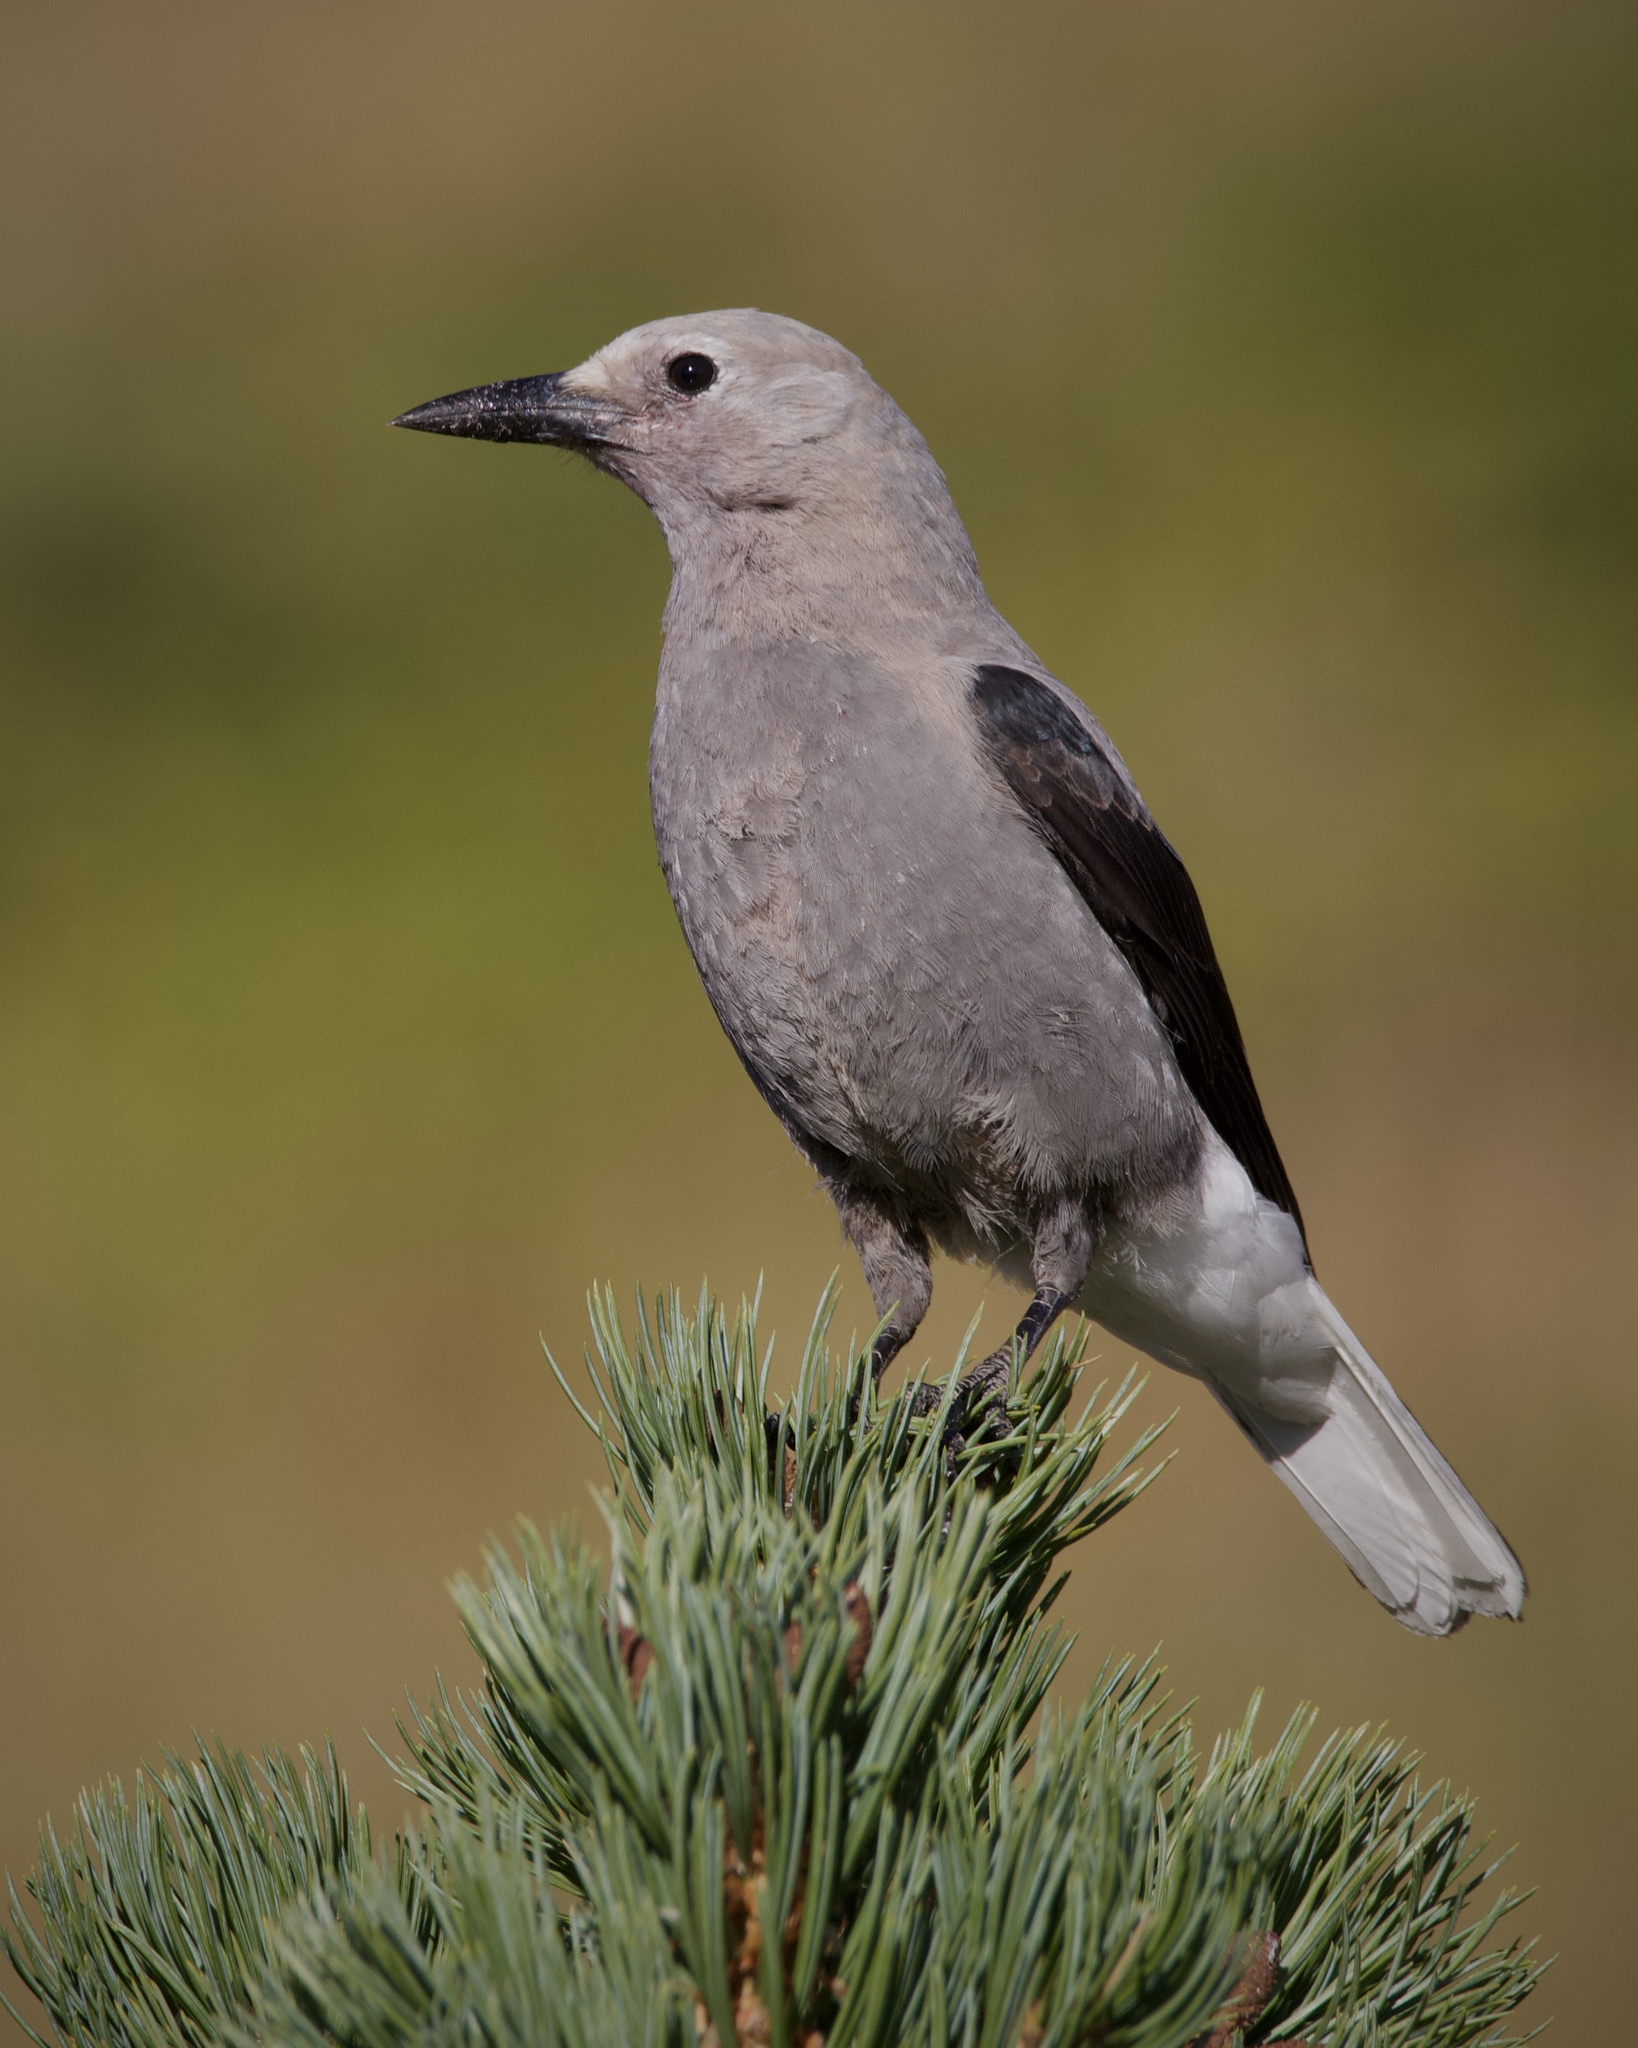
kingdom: Animalia
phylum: Chordata
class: Aves
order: Passeriformes
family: Corvidae
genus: Nucifraga
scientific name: Nucifraga columbiana
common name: Clark's nutcracker
